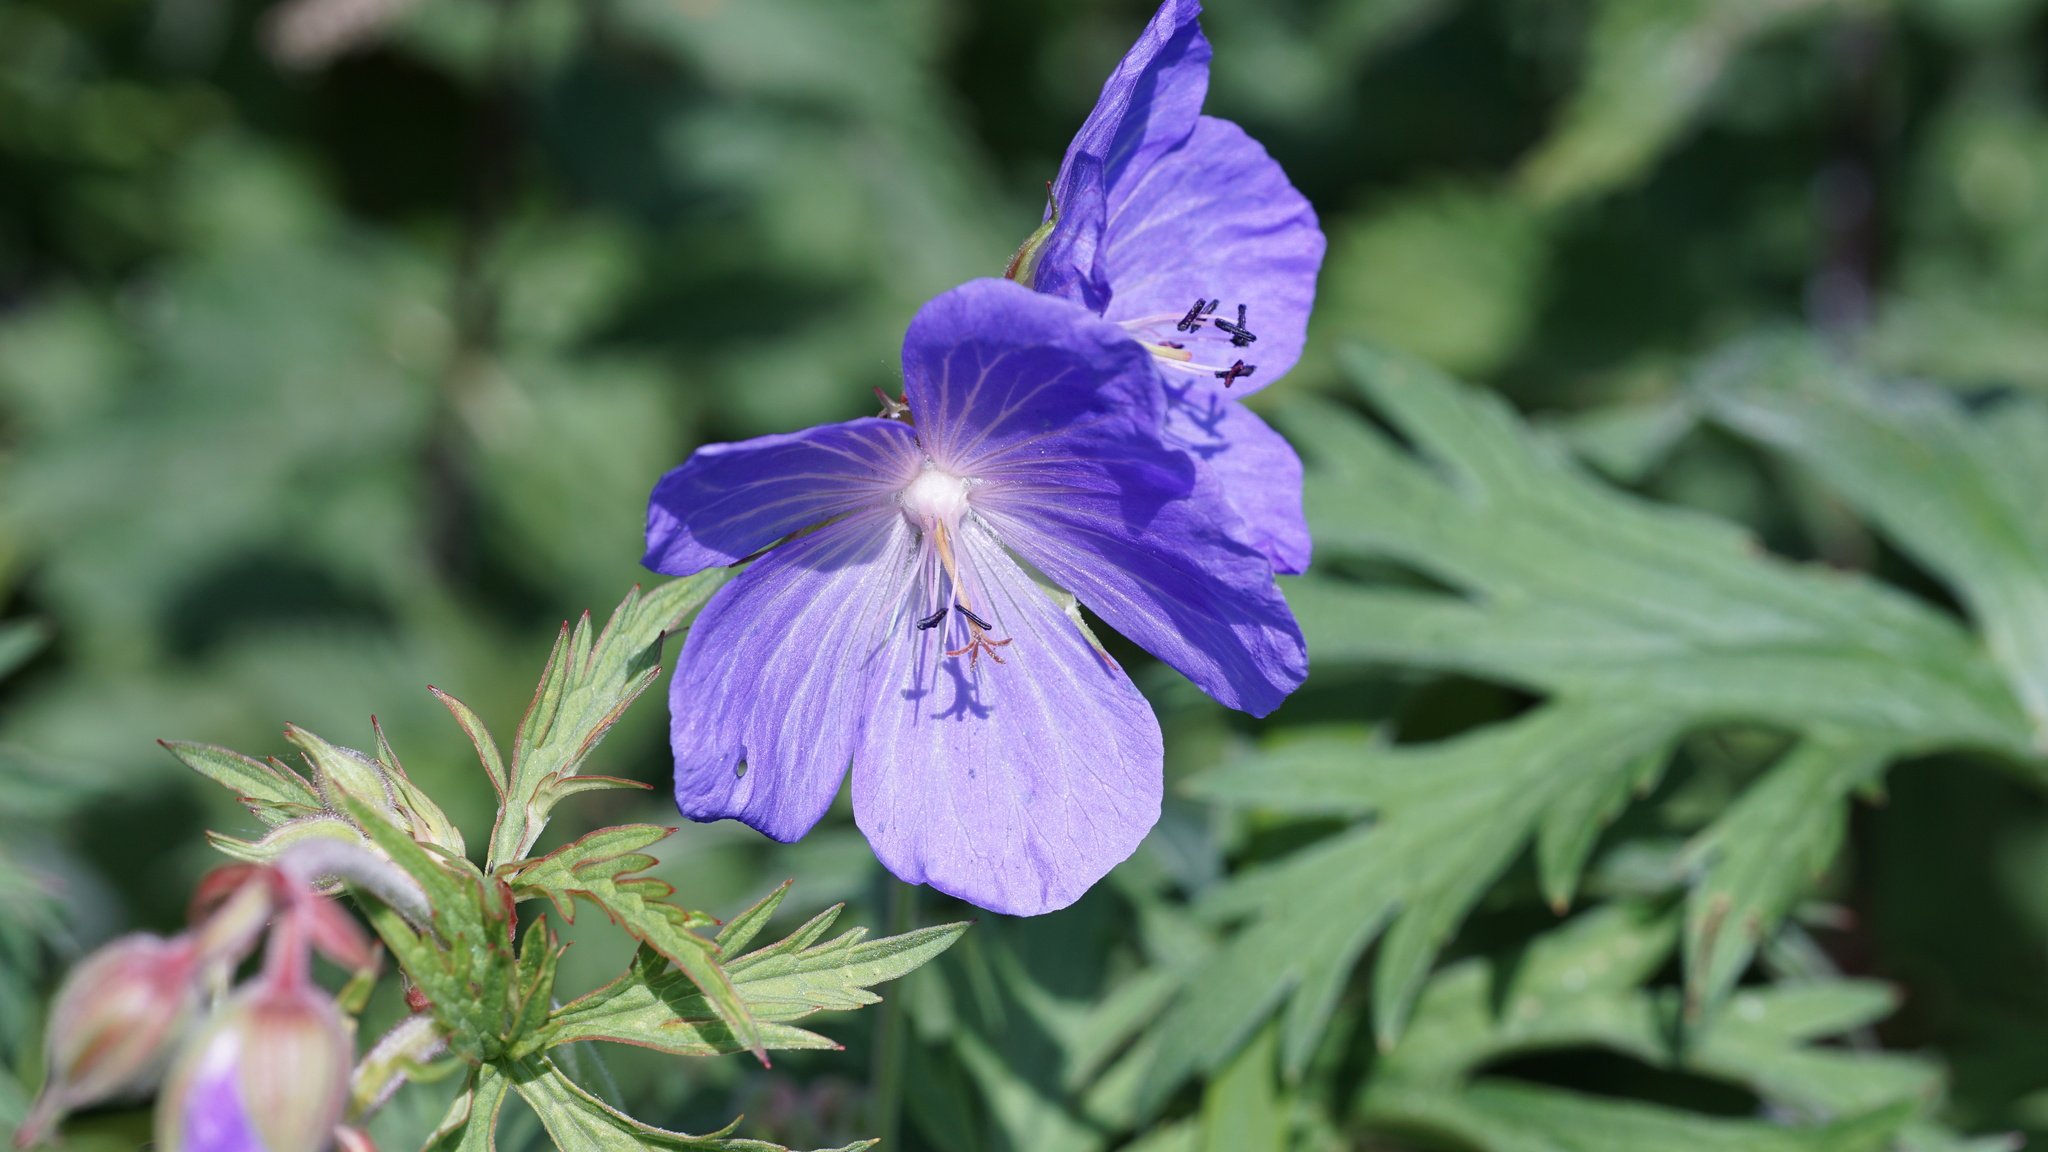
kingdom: Plantae
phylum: Tracheophyta
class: Magnoliopsida
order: Geraniales
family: Geraniaceae
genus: Geranium
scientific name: Geranium pratense
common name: Meadow crane's-bill
